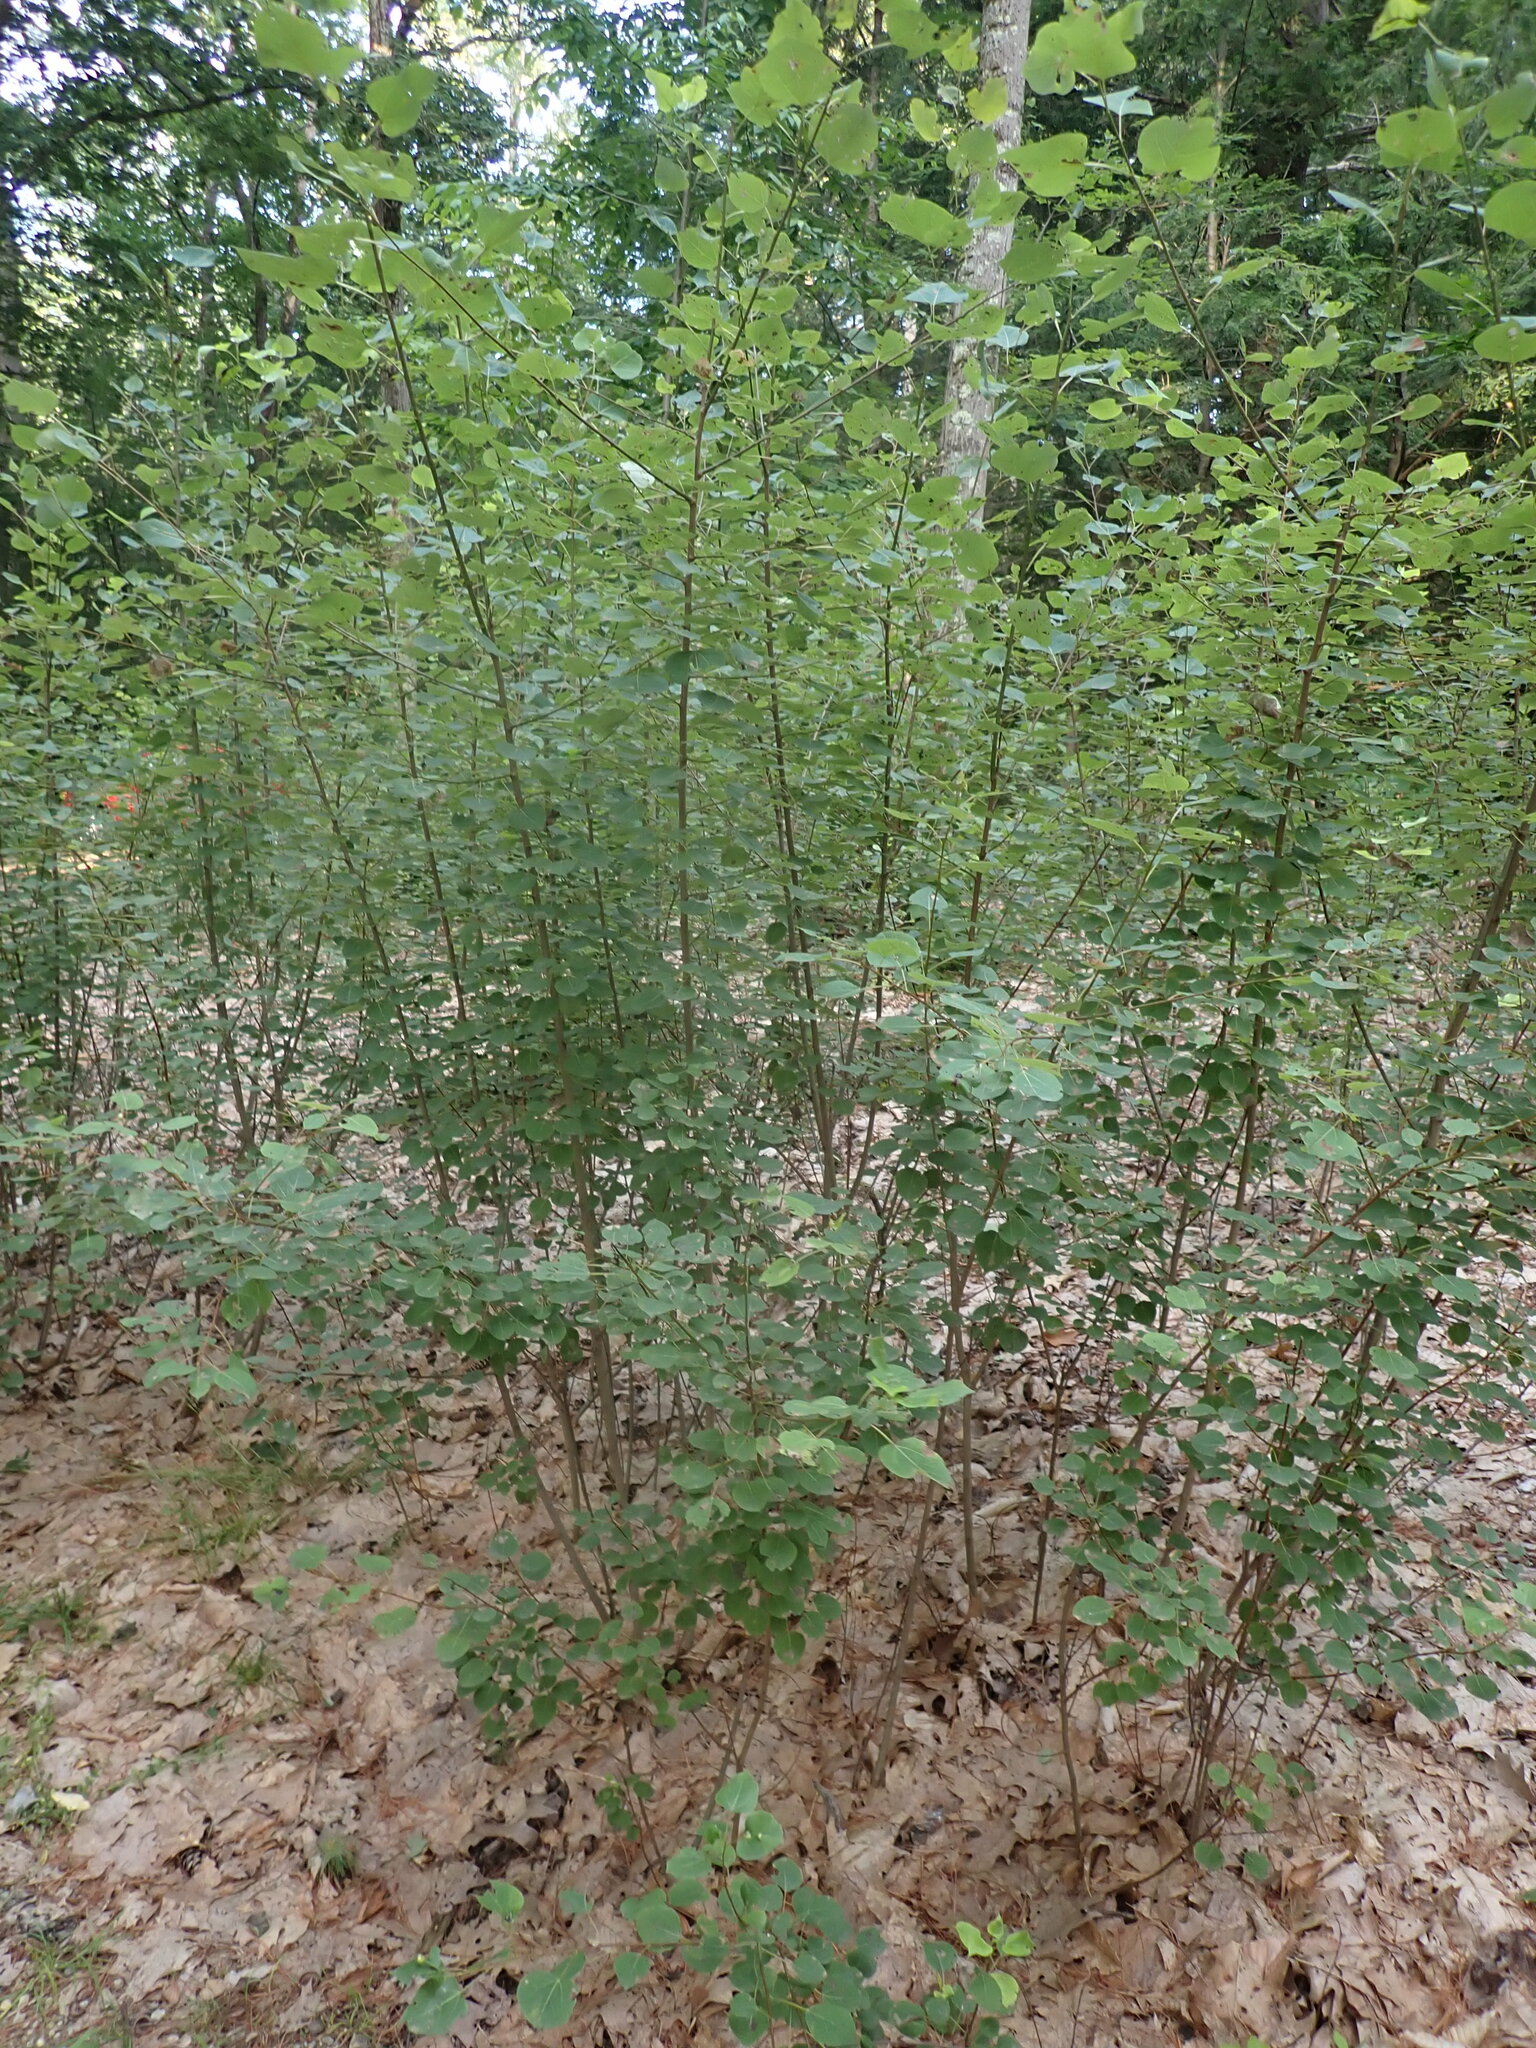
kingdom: Plantae
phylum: Tracheophyta
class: Magnoliopsida
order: Malpighiales
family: Salicaceae
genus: Populus
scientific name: Populus tremuloides
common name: Quaking aspen
